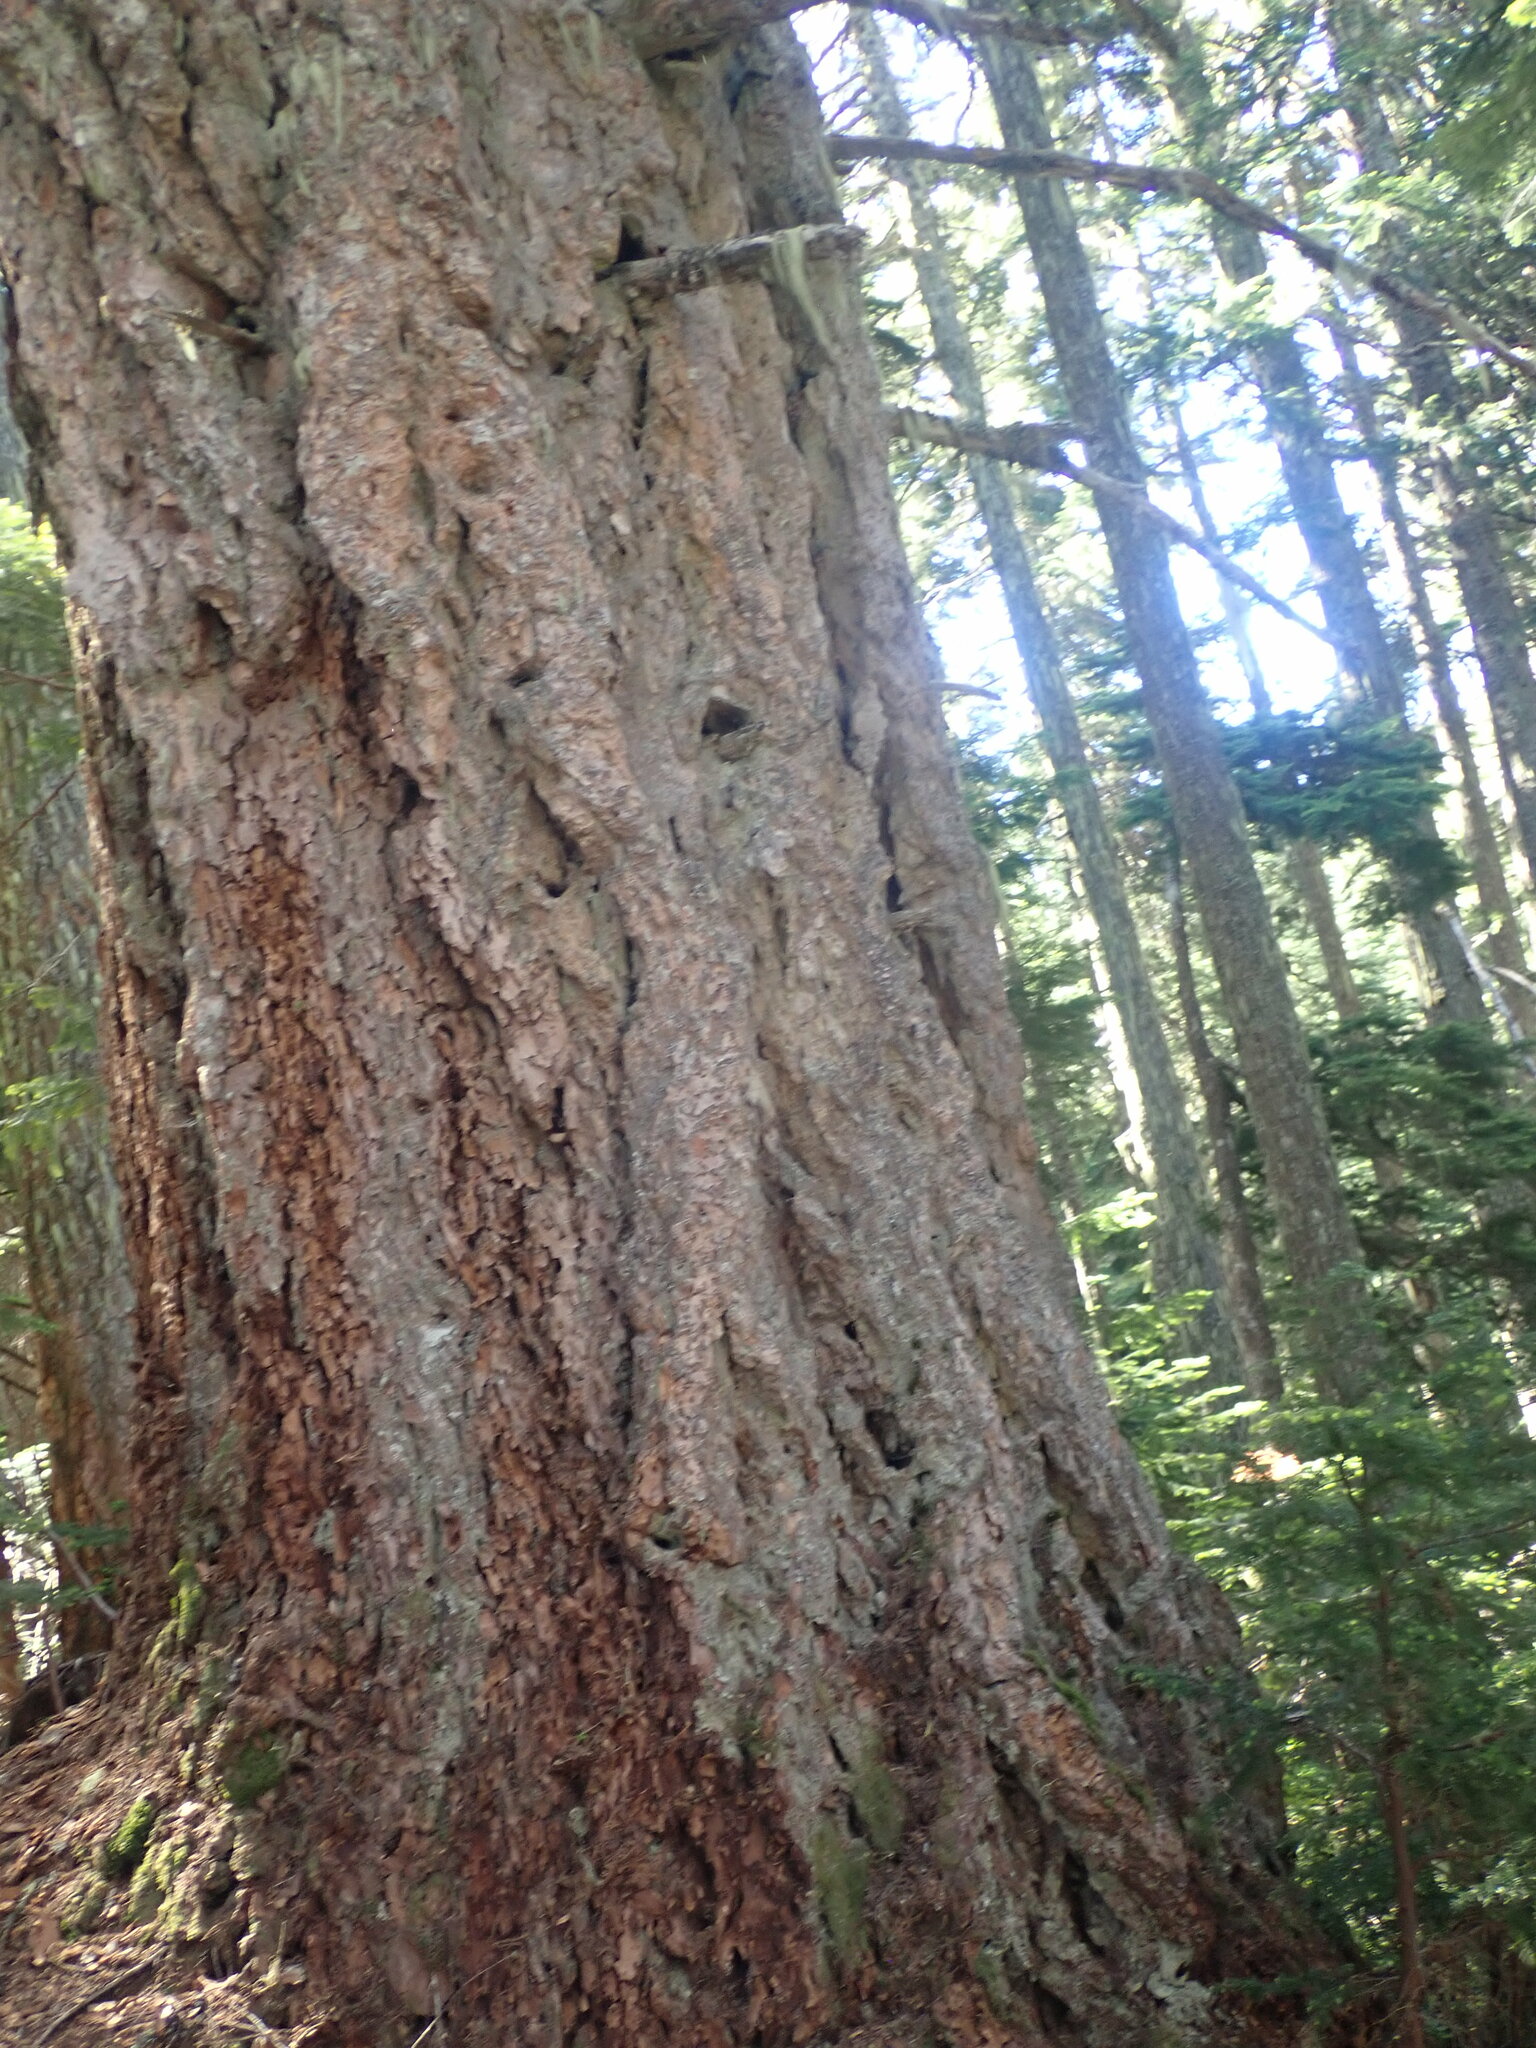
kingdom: Plantae
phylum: Tracheophyta
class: Pinopsida
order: Pinales
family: Pinaceae
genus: Pseudotsuga
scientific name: Pseudotsuga menziesii
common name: Douglas fir
